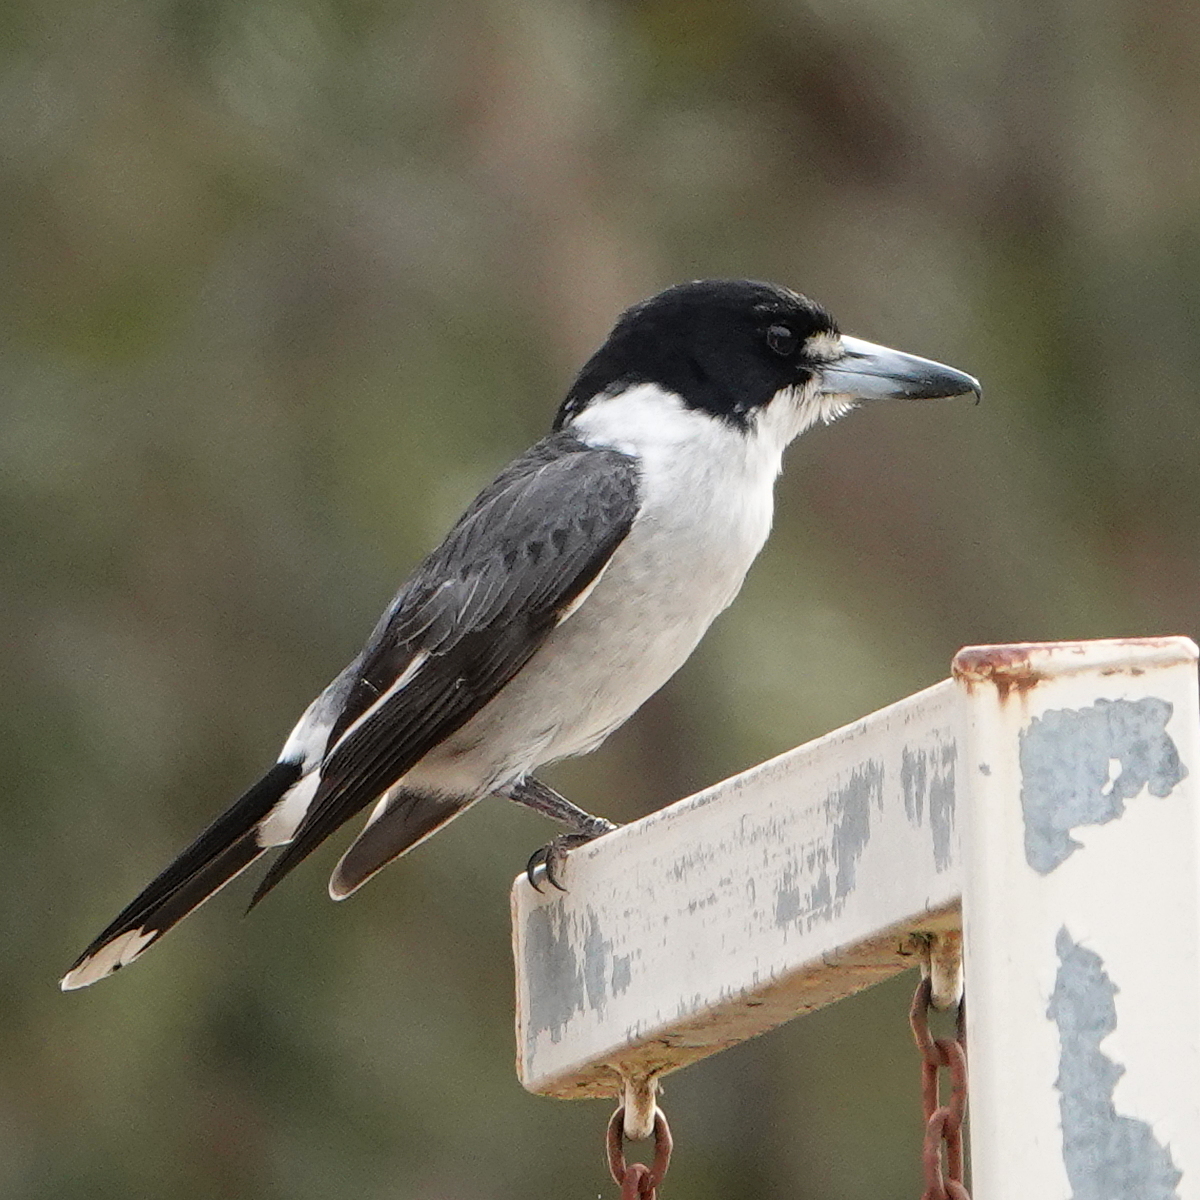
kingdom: Animalia
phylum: Chordata
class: Aves
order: Passeriformes
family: Cracticidae
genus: Cracticus
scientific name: Cracticus torquatus
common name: Grey butcherbird
